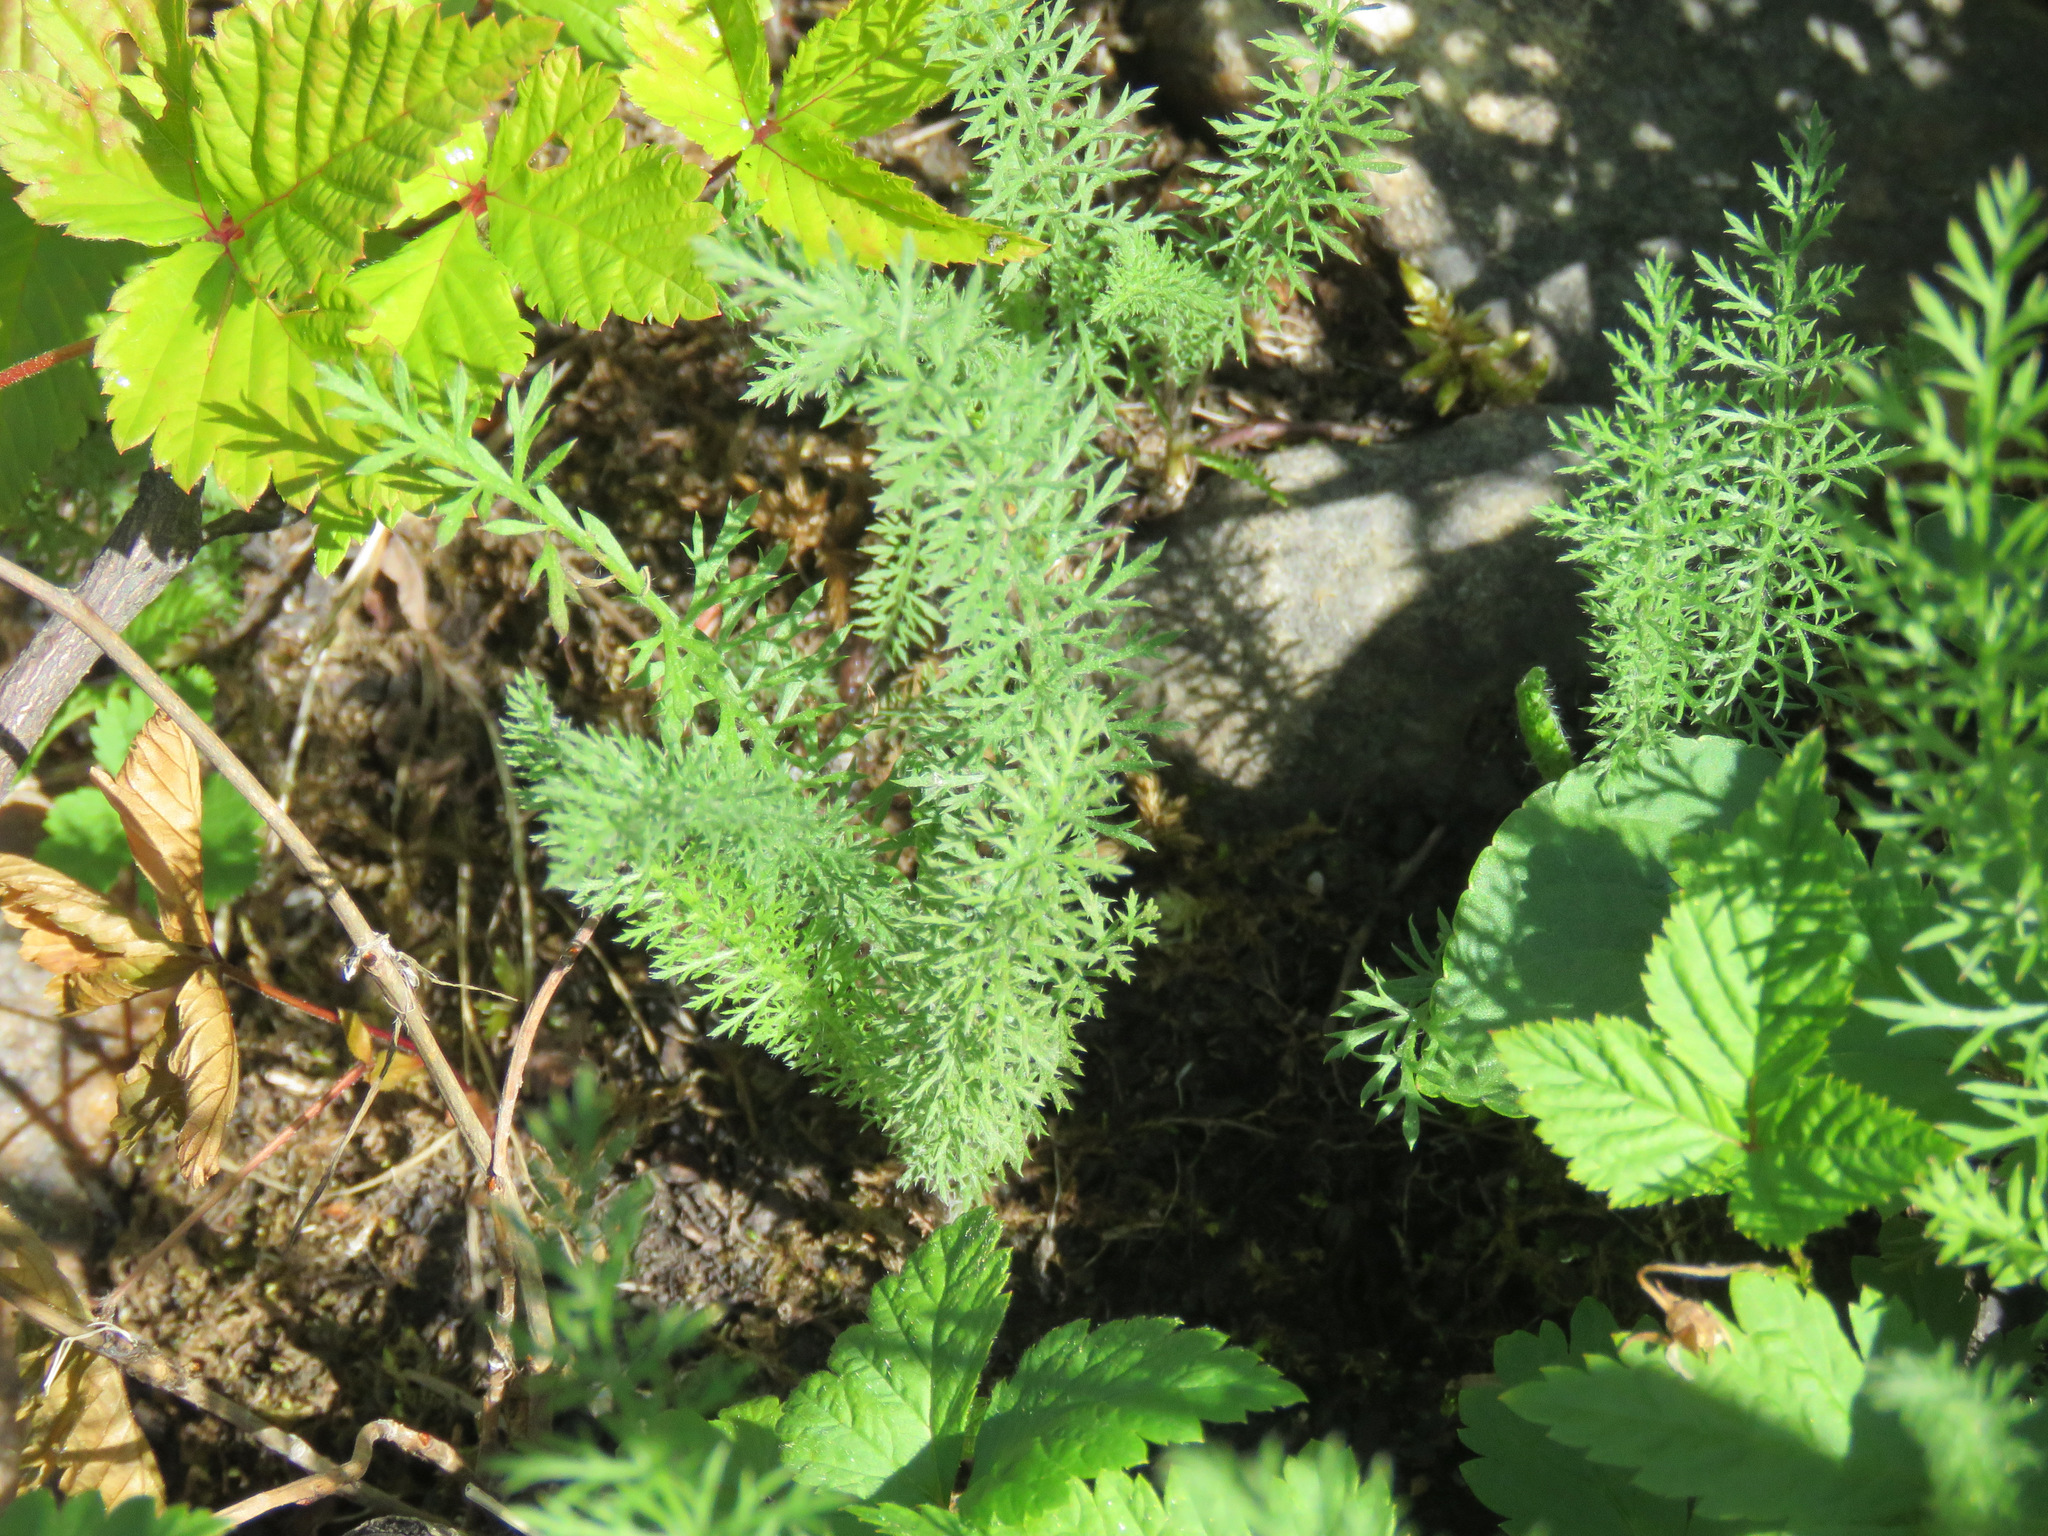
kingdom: Plantae
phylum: Tracheophyta
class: Magnoliopsida
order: Asterales
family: Asteraceae
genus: Achillea
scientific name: Achillea millefolium
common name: Yarrow
